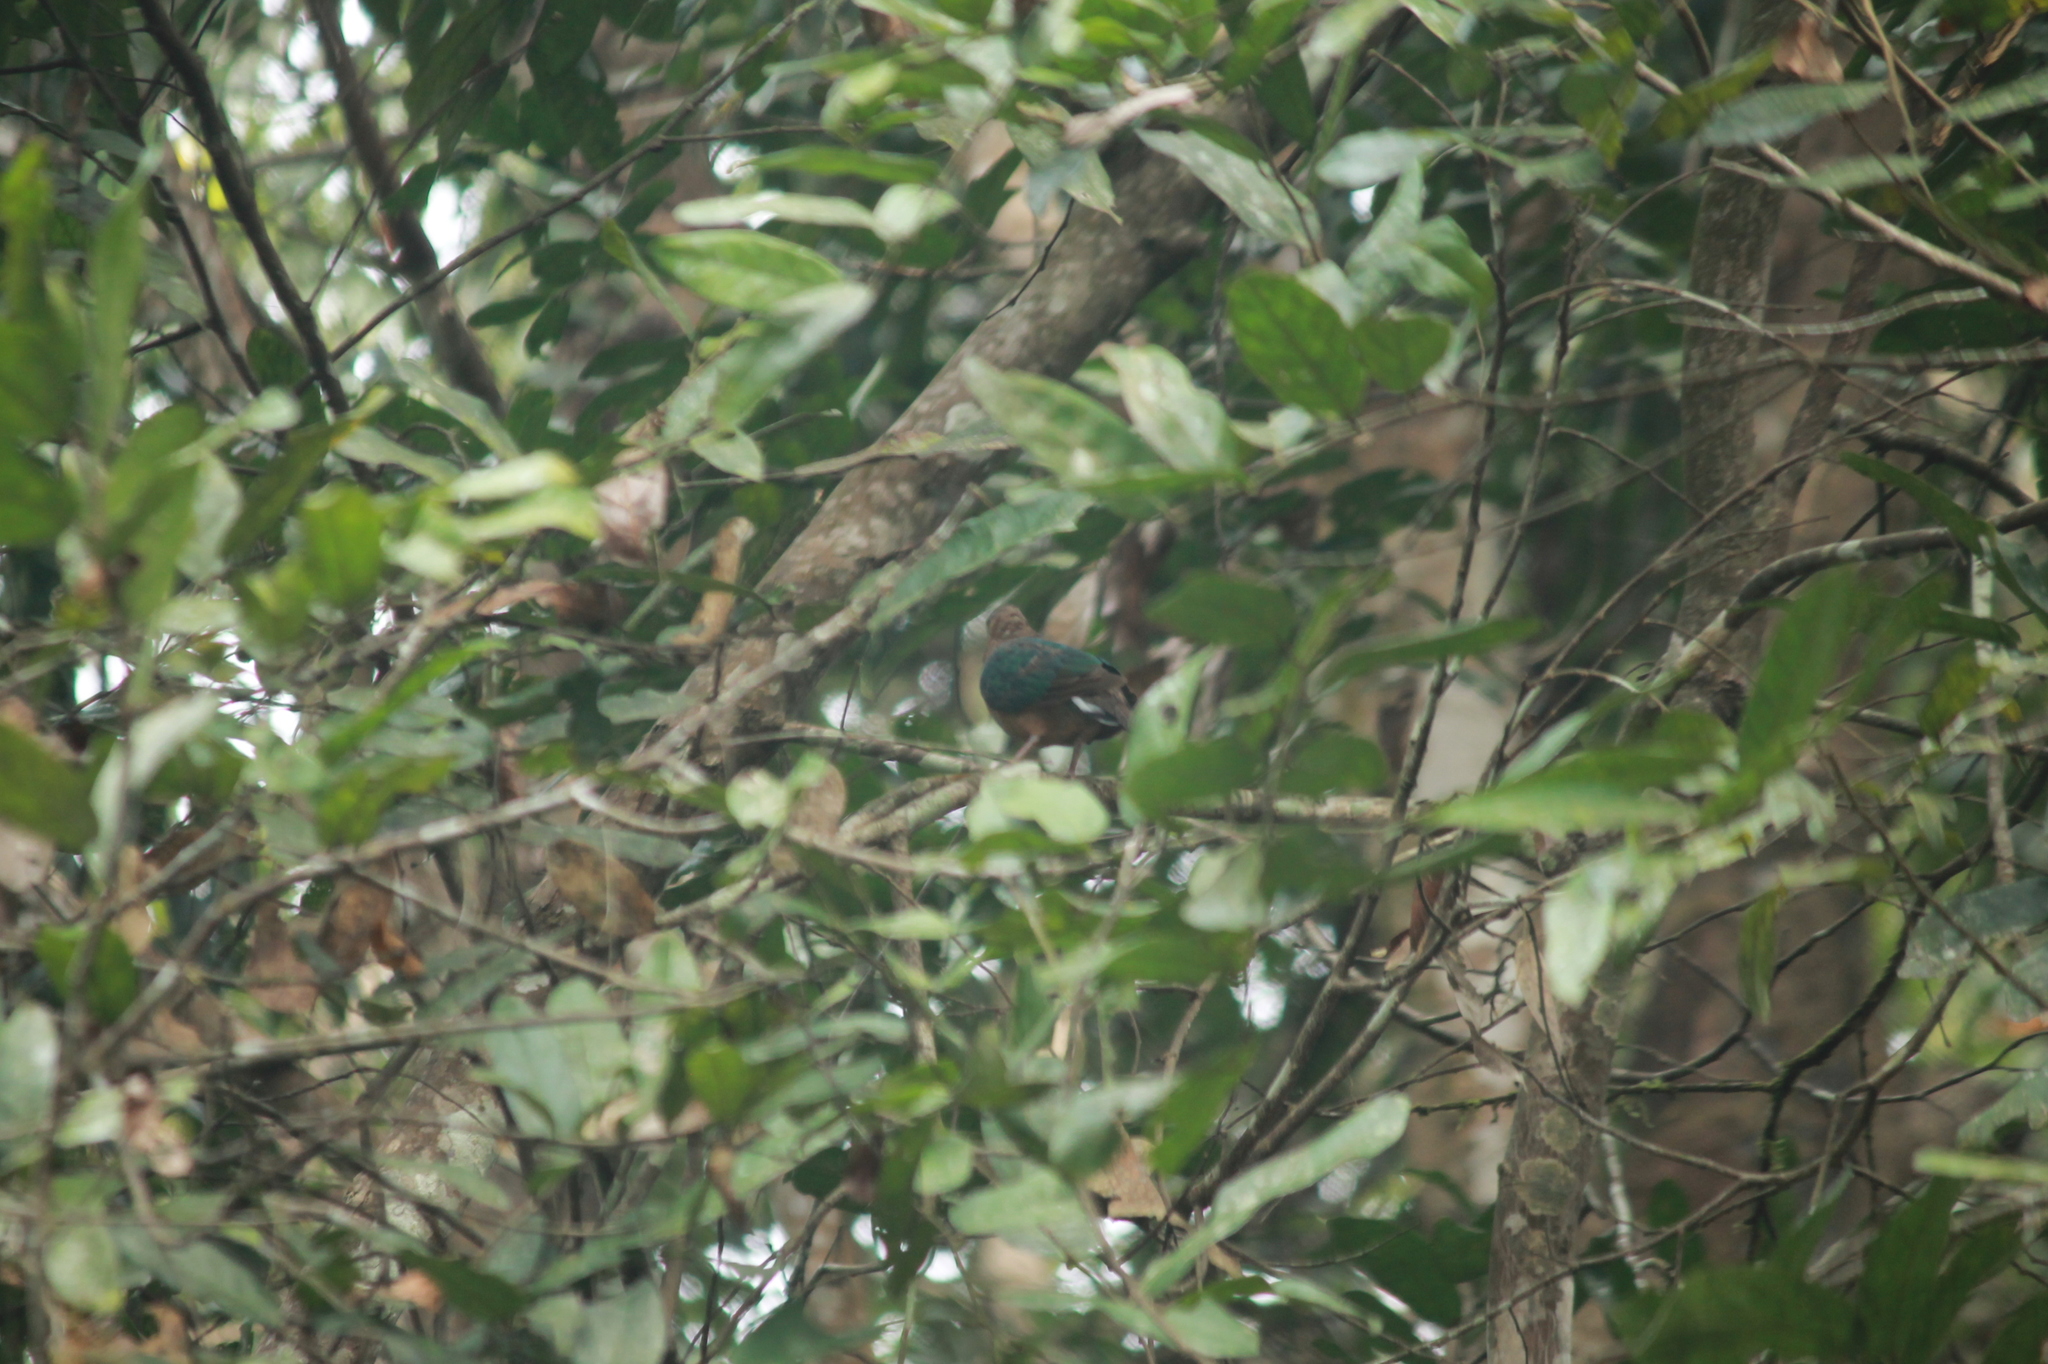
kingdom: Animalia
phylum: Chordata
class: Aves
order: Columbiformes
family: Columbidae
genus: Chalcophaps
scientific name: Chalcophaps indica
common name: Common emerald dove
